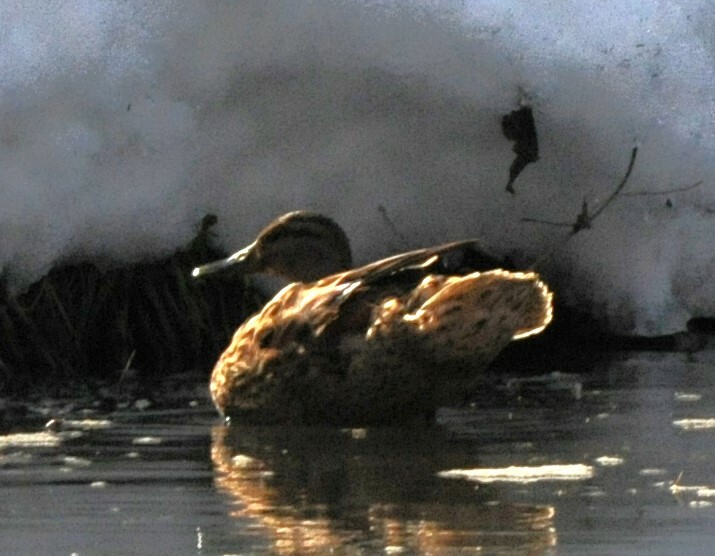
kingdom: Animalia
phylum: Chordata
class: Aves
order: Anseriformes
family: Anatidae
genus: Anas
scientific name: Anas platyrhynchos
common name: Mallard
